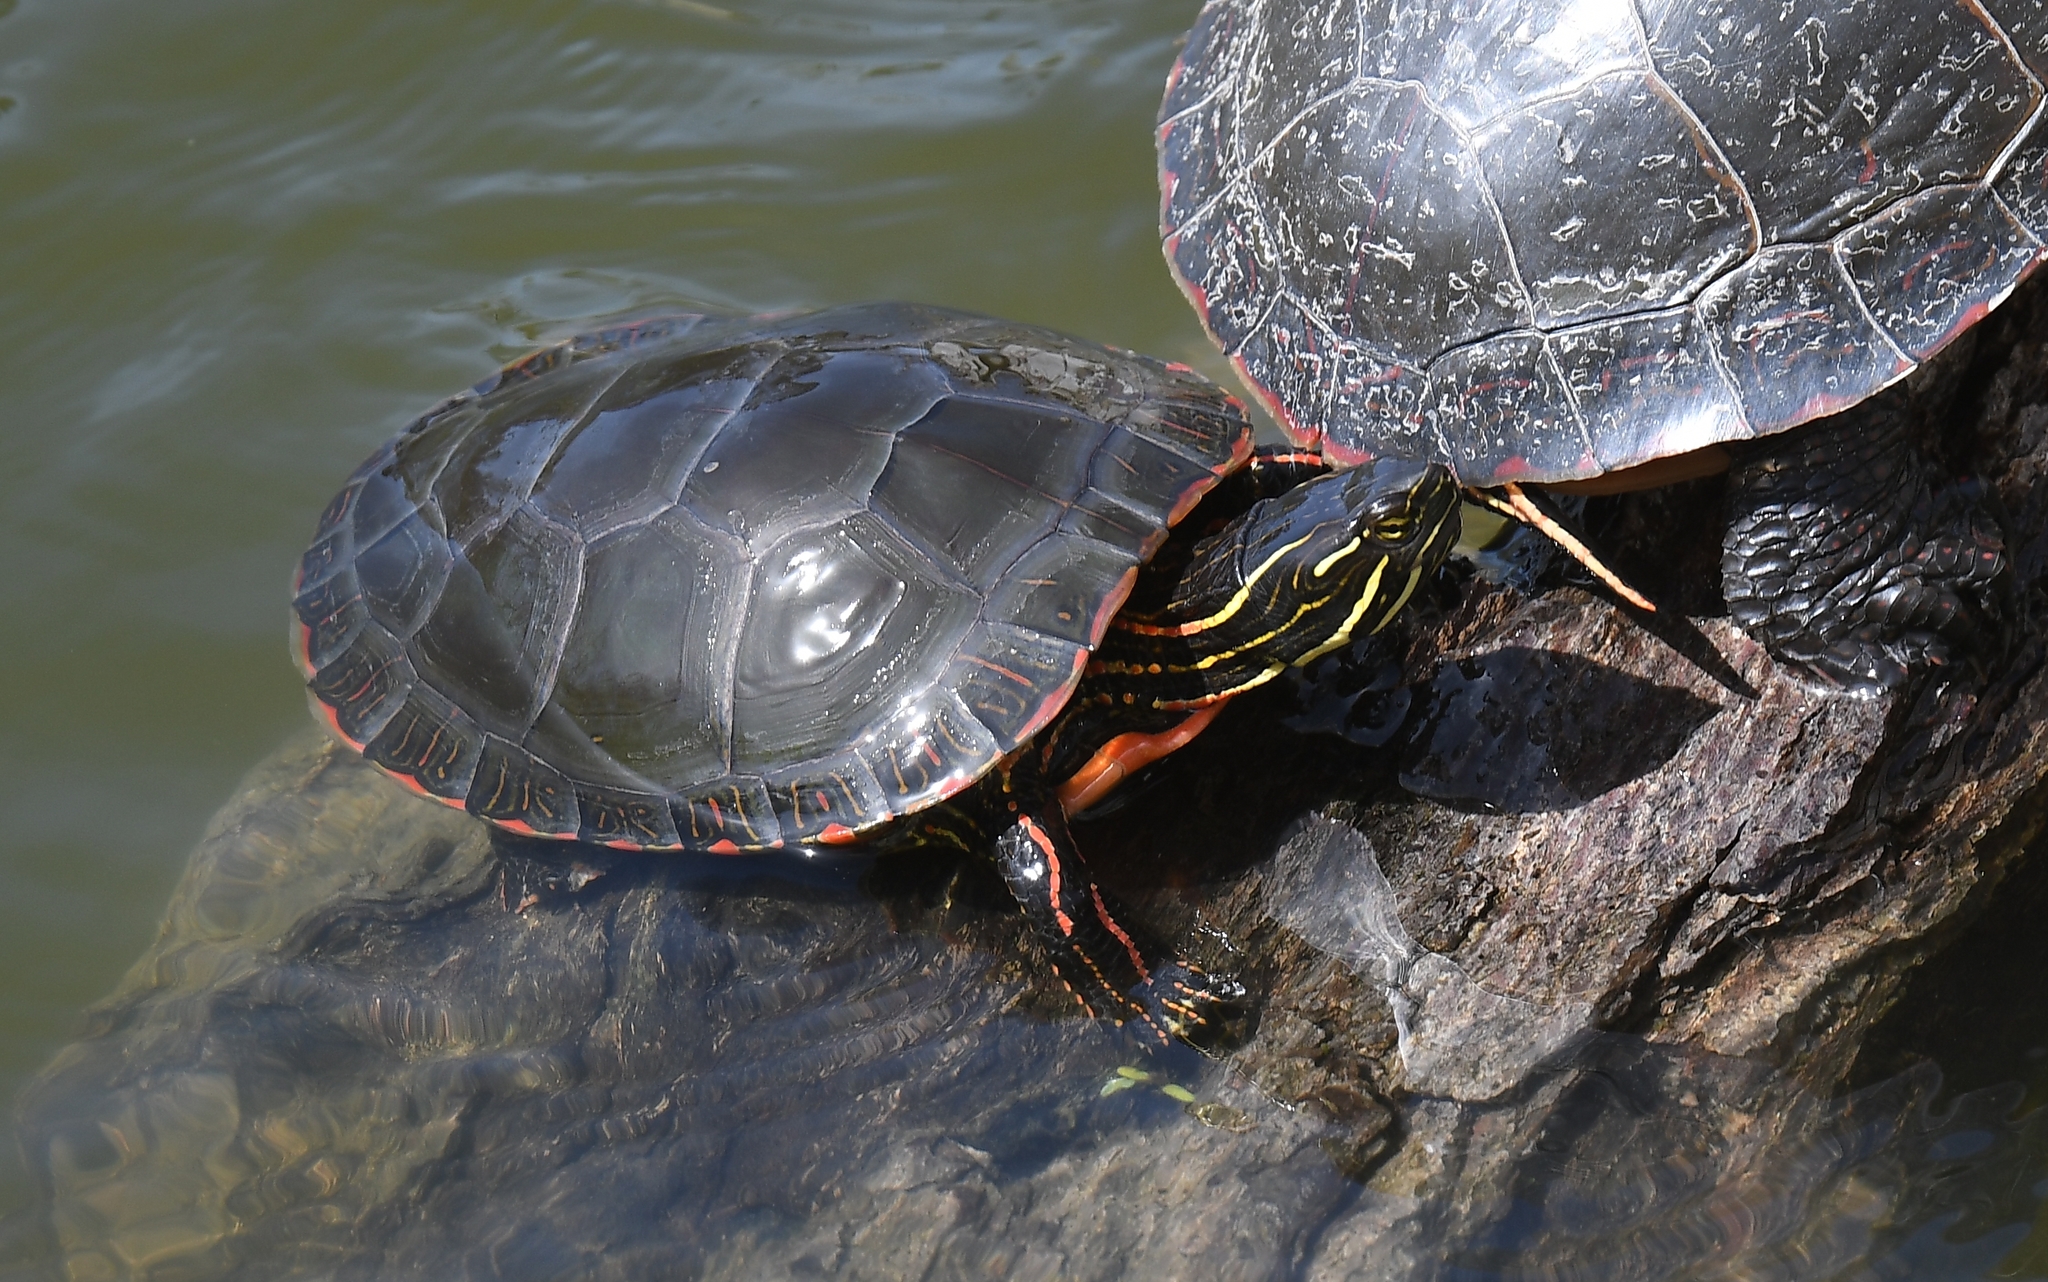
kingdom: Animalia
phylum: Chordata
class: Testudines
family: Emydidae
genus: Chrysemys
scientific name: Chrysemys picta
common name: Painted turtle
